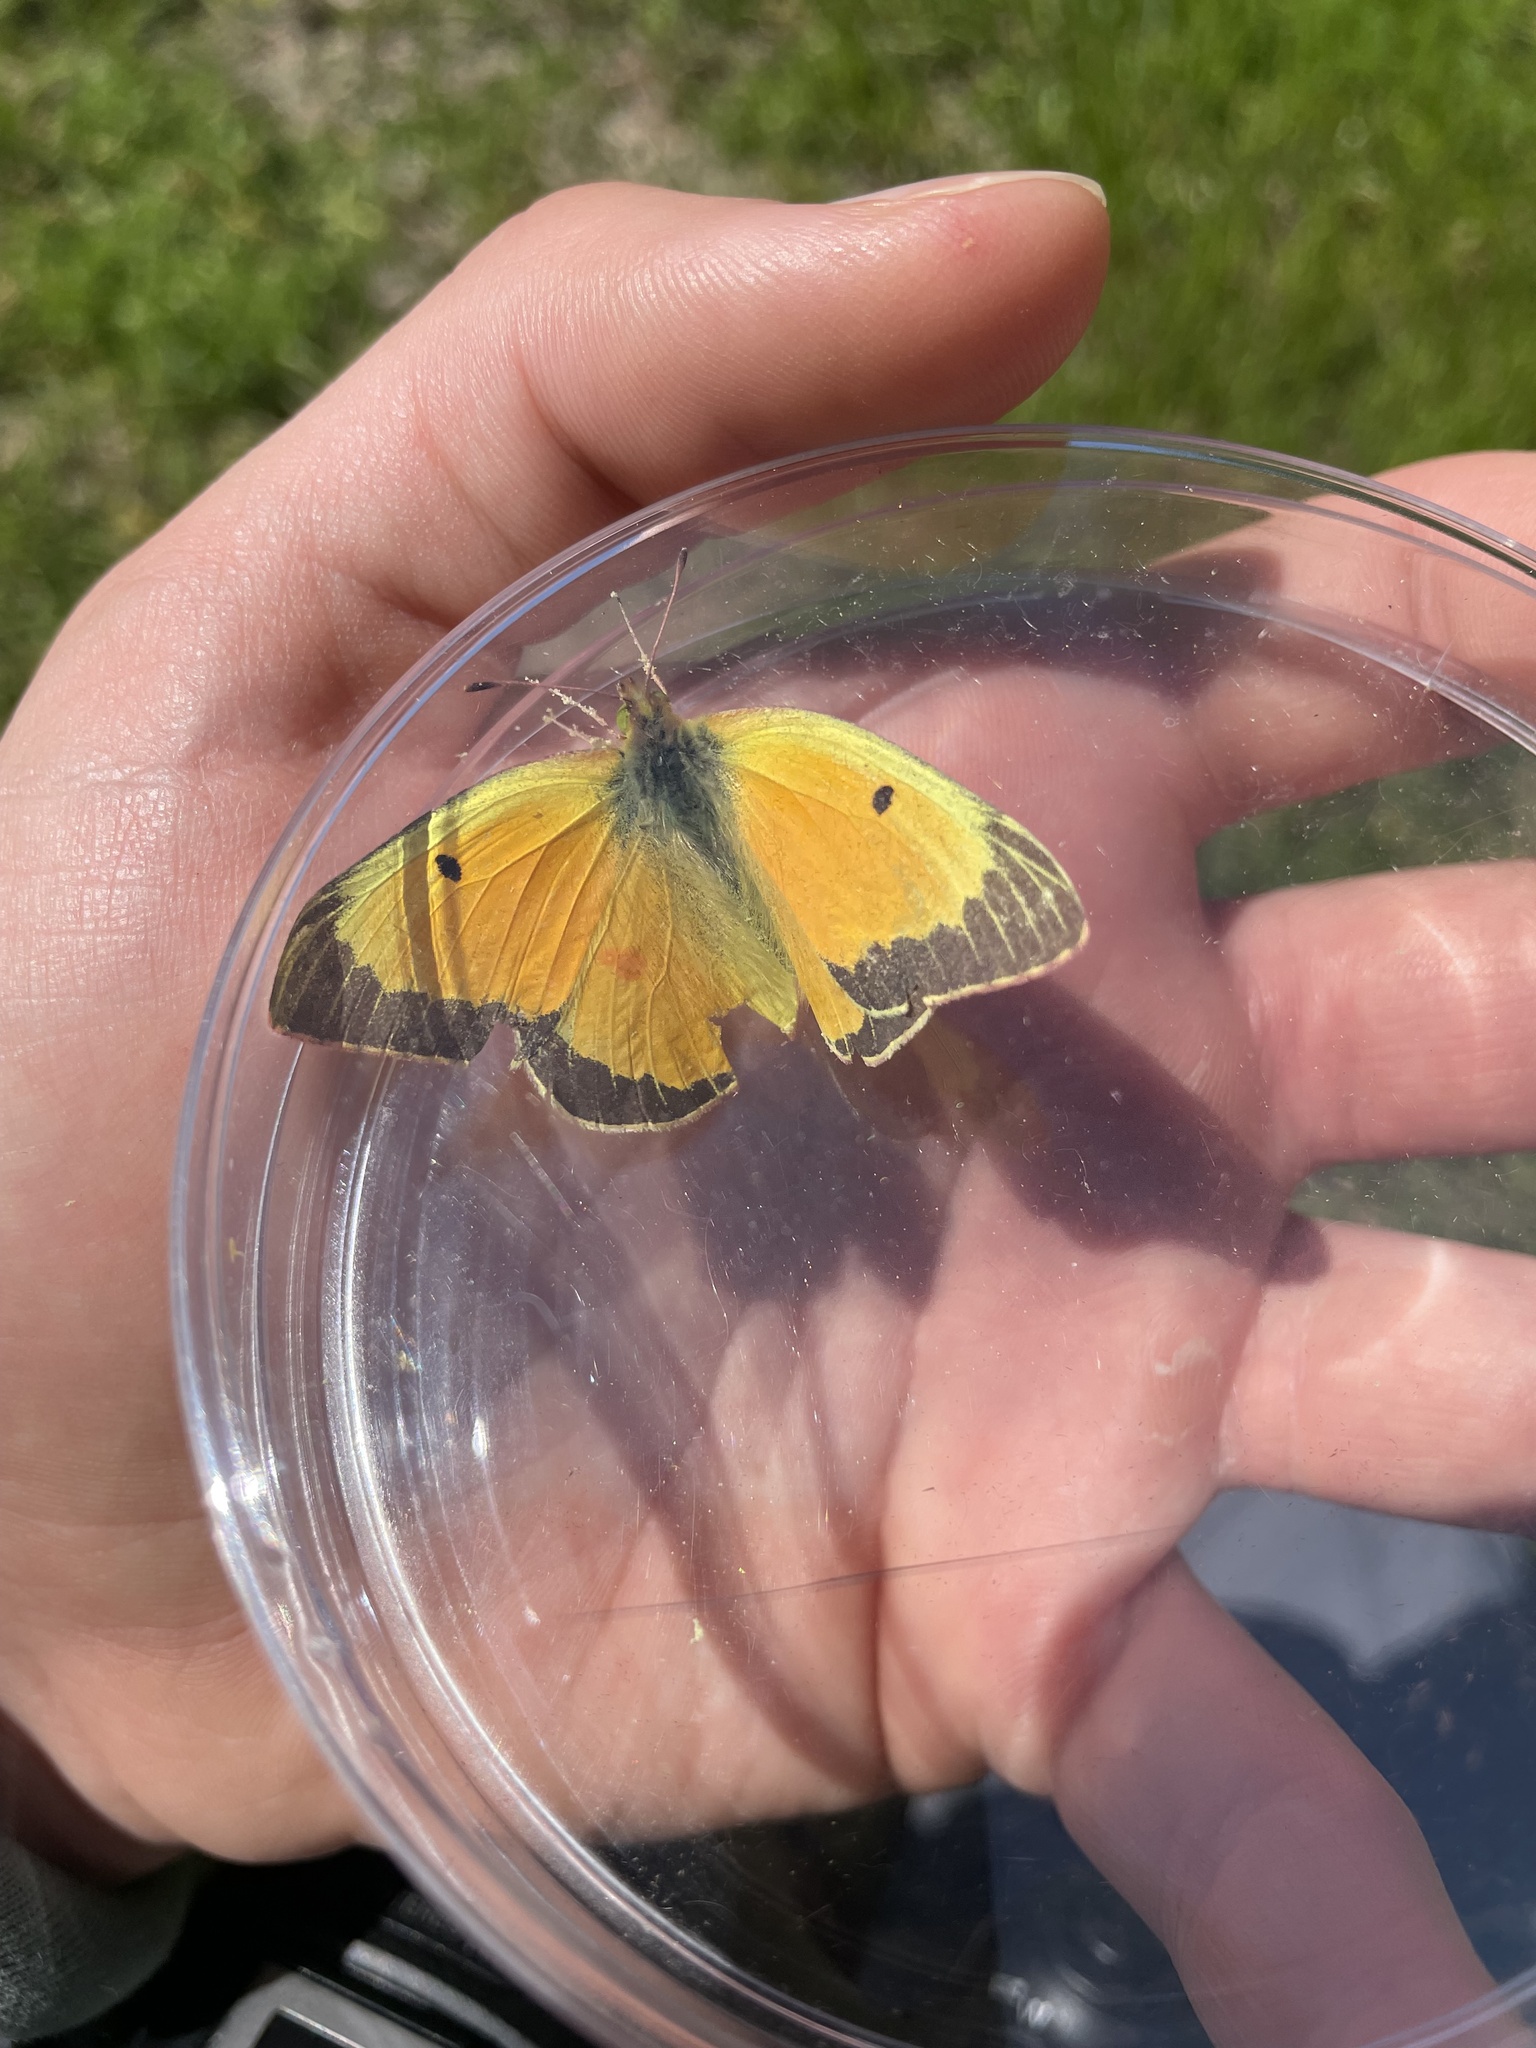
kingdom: Animalia
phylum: Arthropoda
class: Insecta
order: Lepidoptera
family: Pieridae
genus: Colias
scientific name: Colias eurytheme
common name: Alfalfa butterfly
